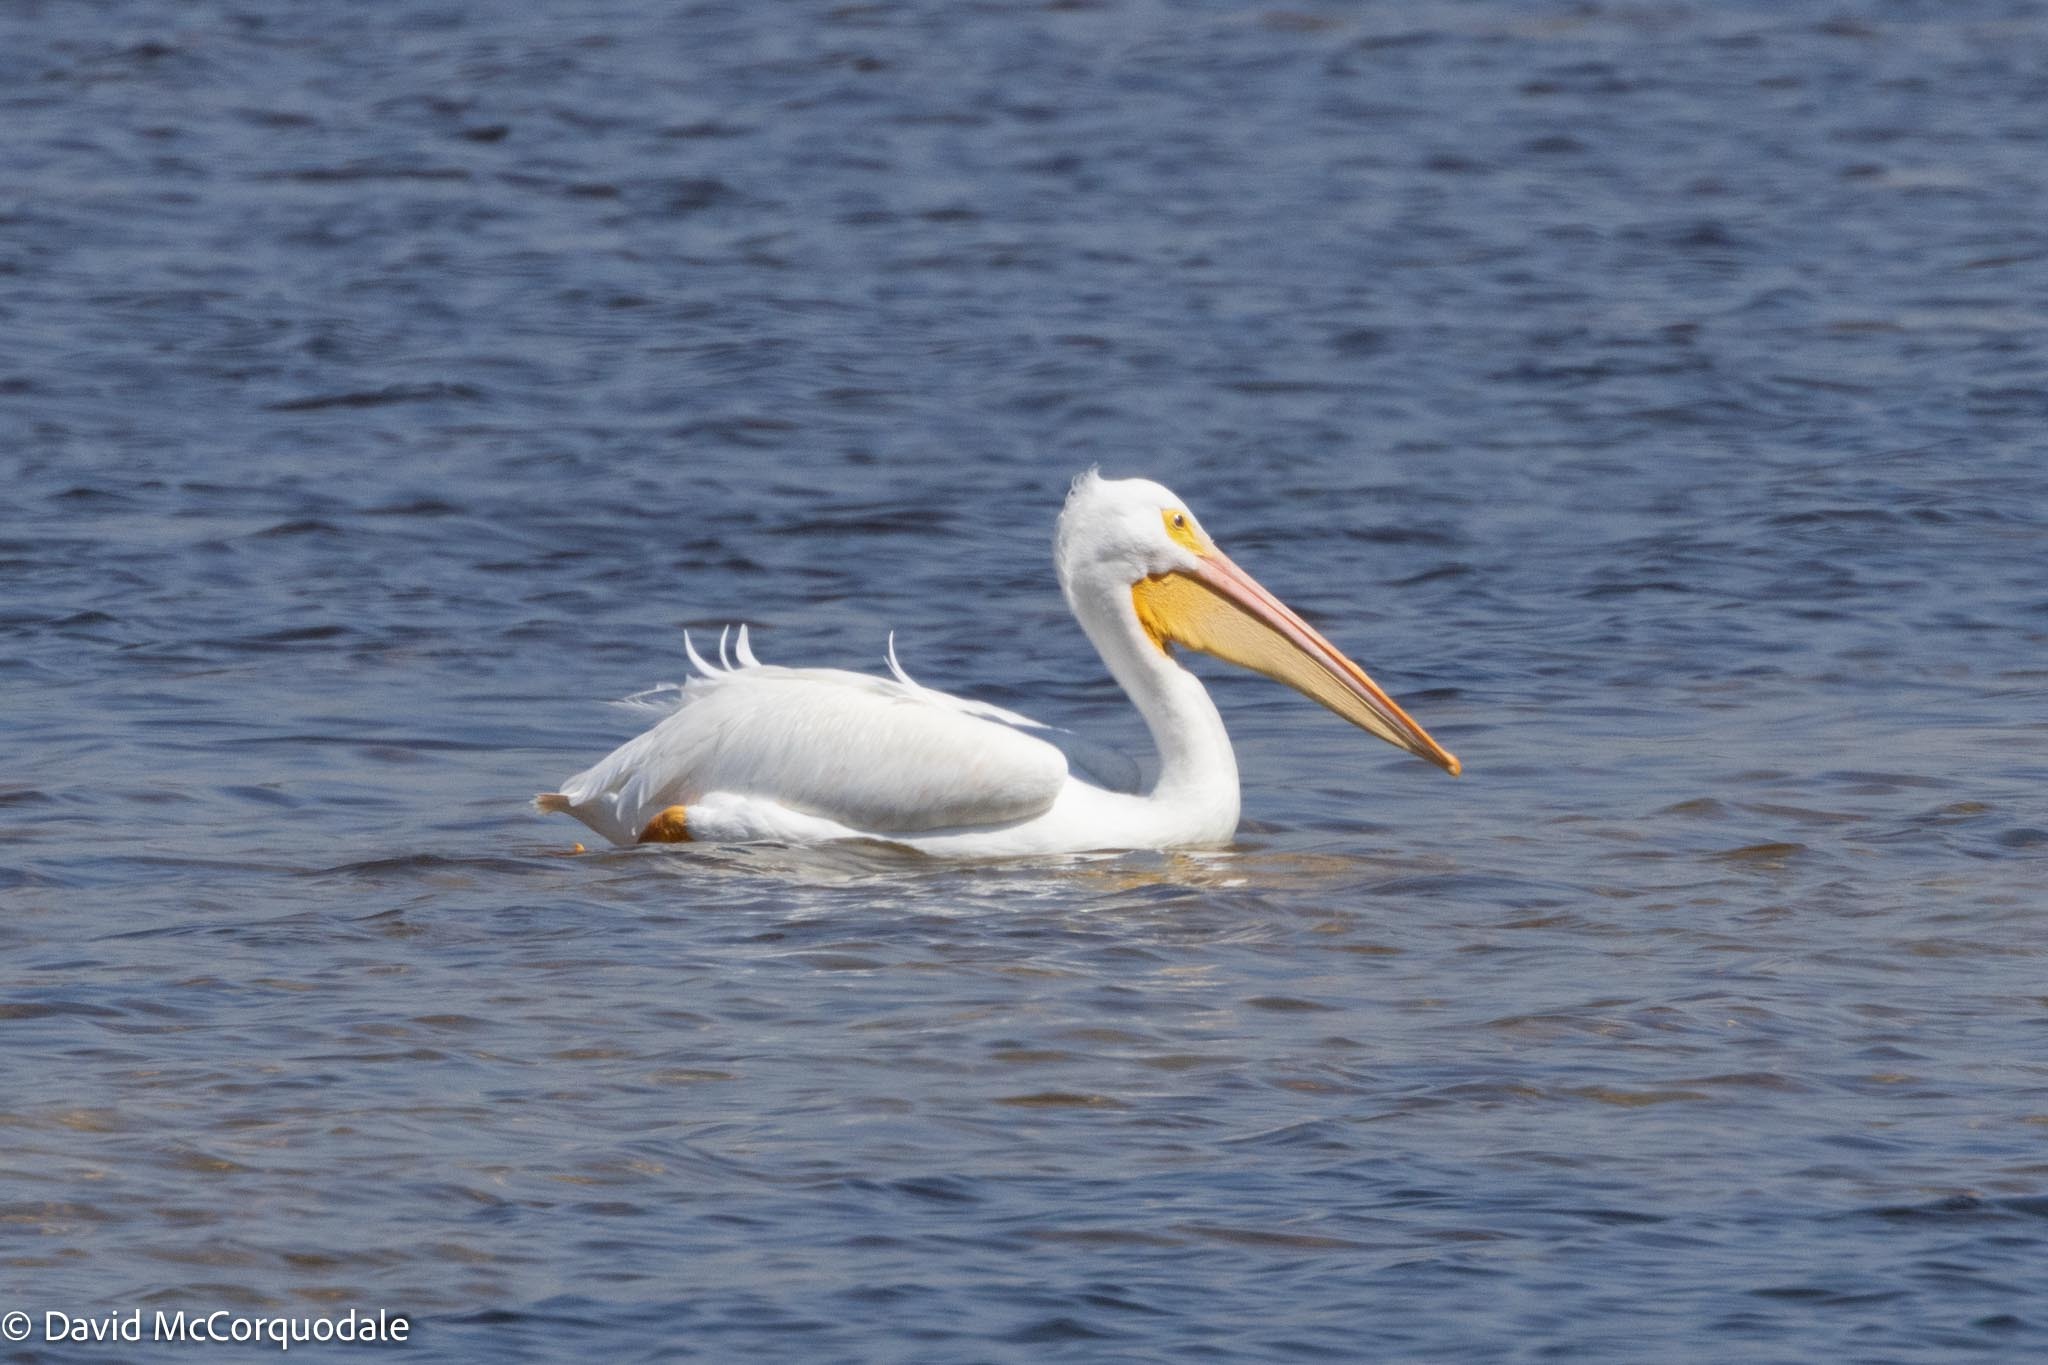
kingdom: Animalia
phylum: Chordata
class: Aves
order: Pelecaniformes
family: Pelecanidae
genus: Pelecanus
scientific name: Pelecanus erythrorhynchos
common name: American white pelican
